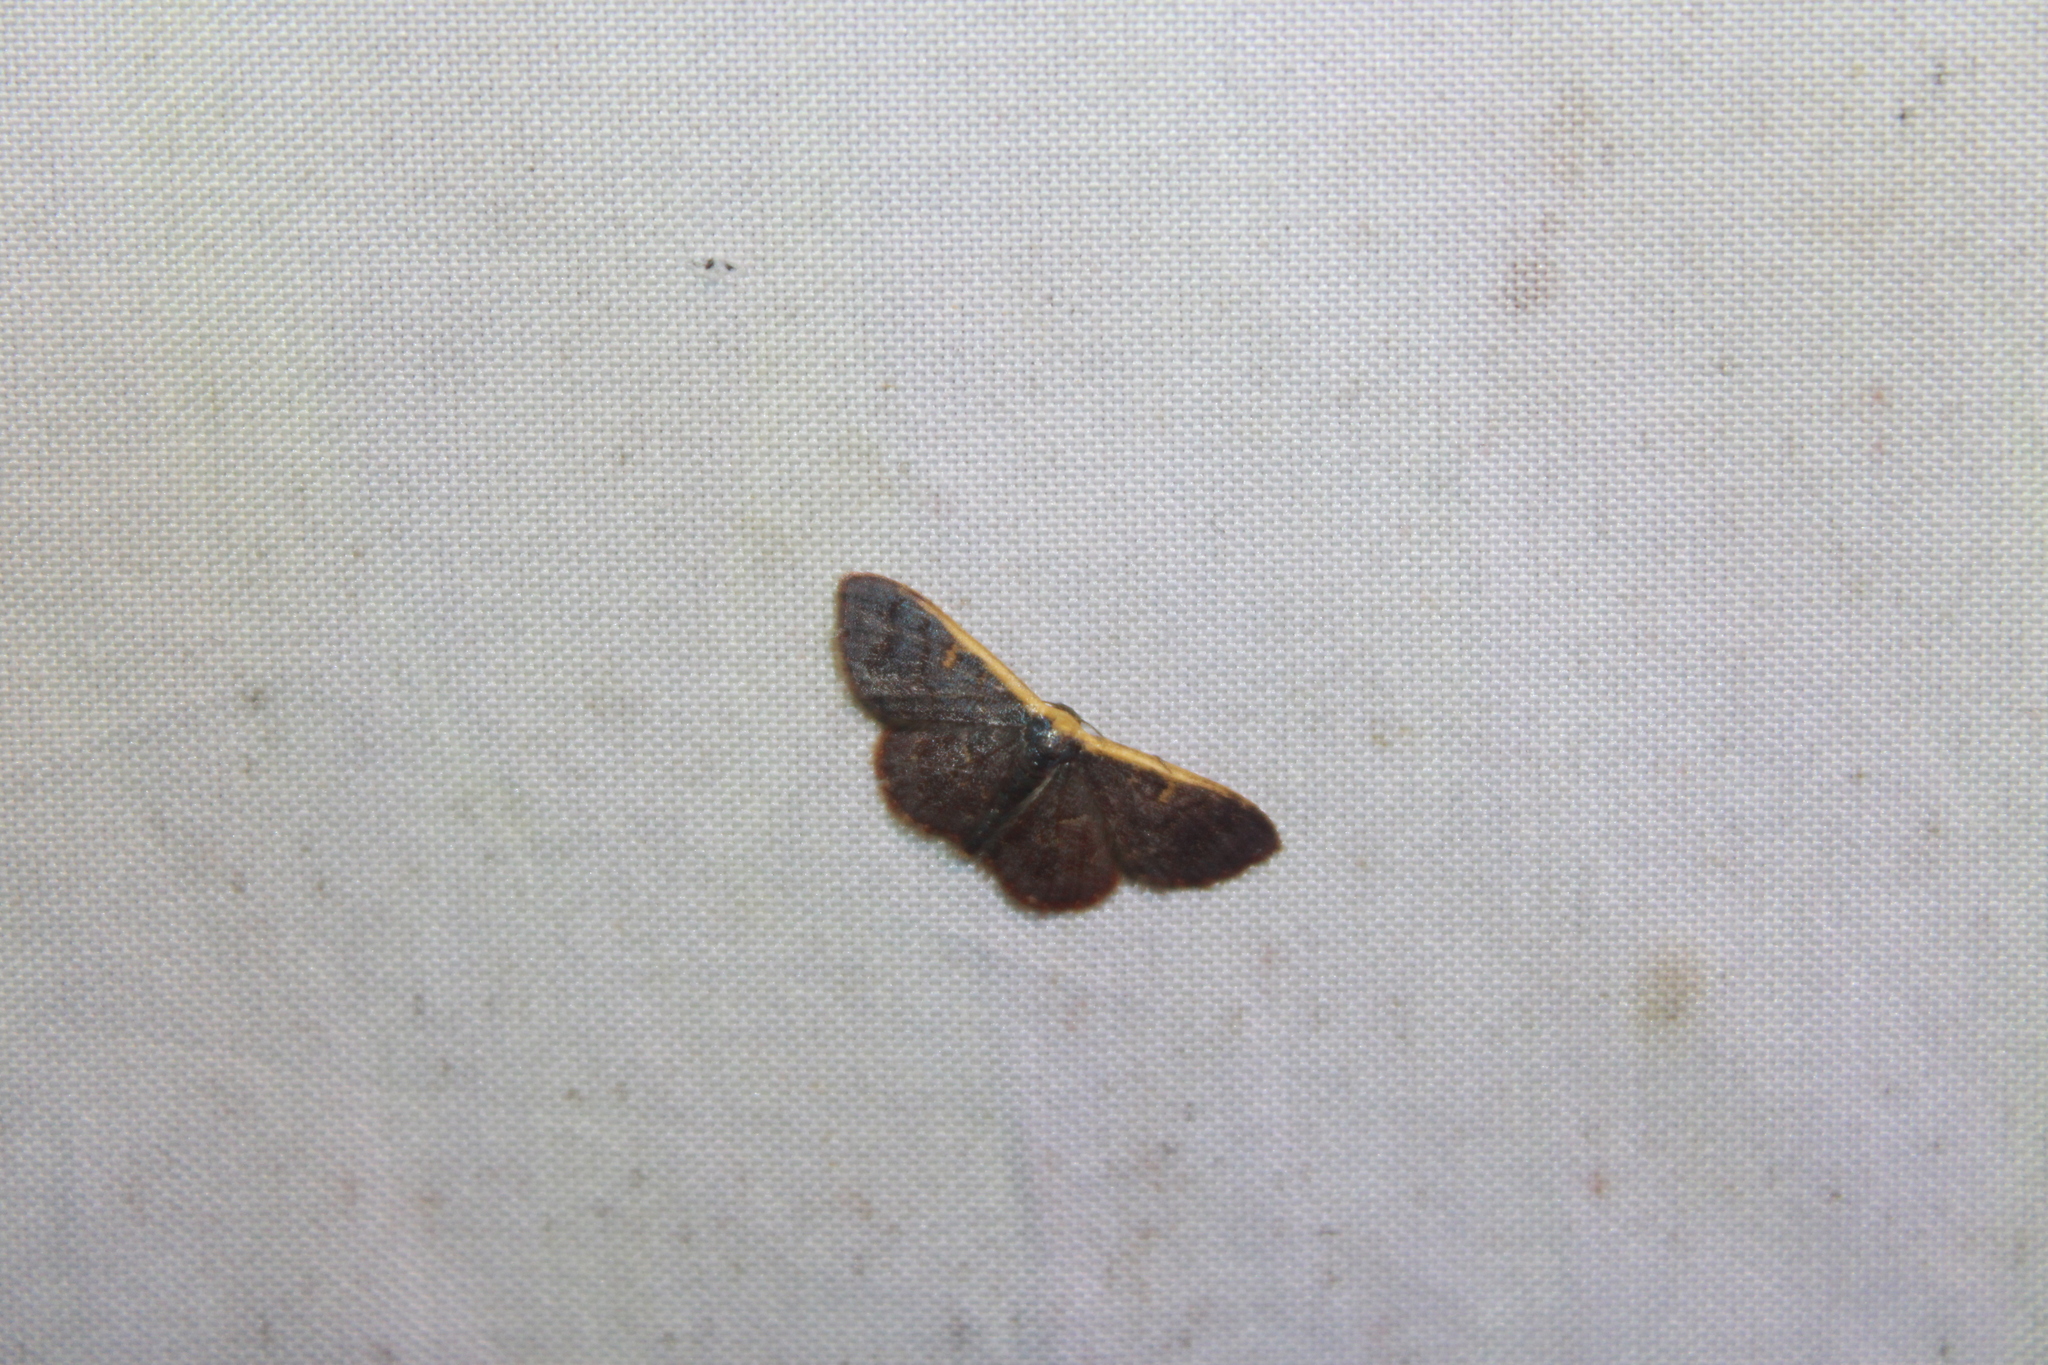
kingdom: Animalia
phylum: Arthropoda
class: Insecta
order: Lepidoptera
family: Geometridae
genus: Leptostales
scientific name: Leptostales crossii
